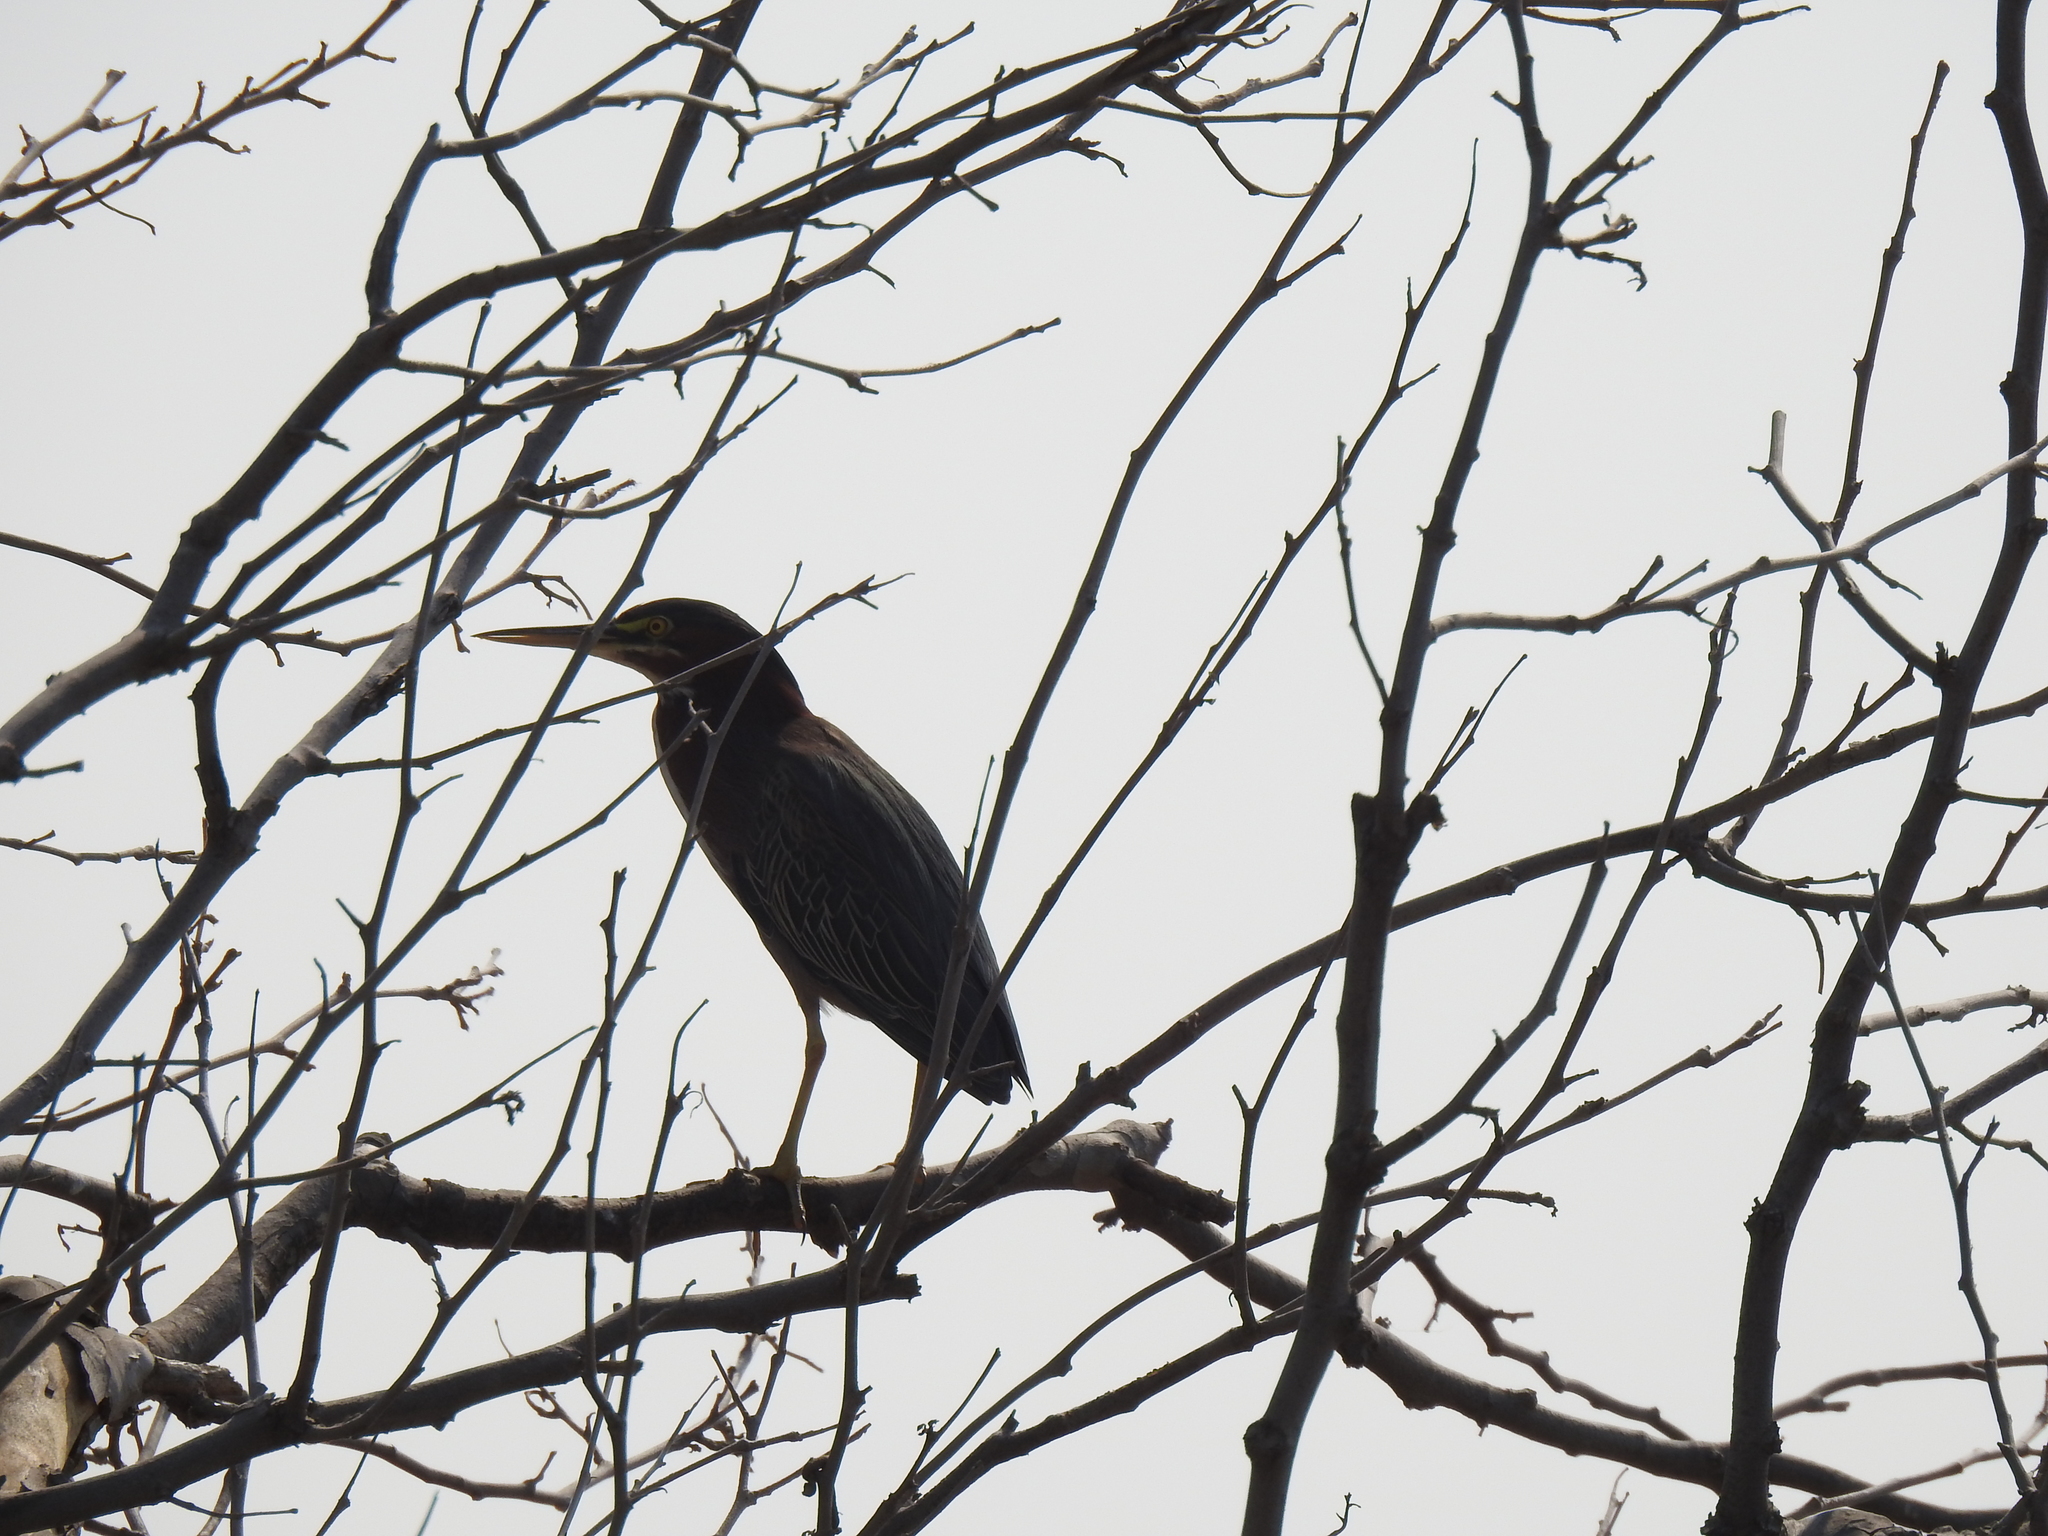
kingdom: Animalia
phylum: Chordata
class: Aves
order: Pelecaniformes
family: Ardeidae
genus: Butorides
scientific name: Butorides virescens
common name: Green heron
